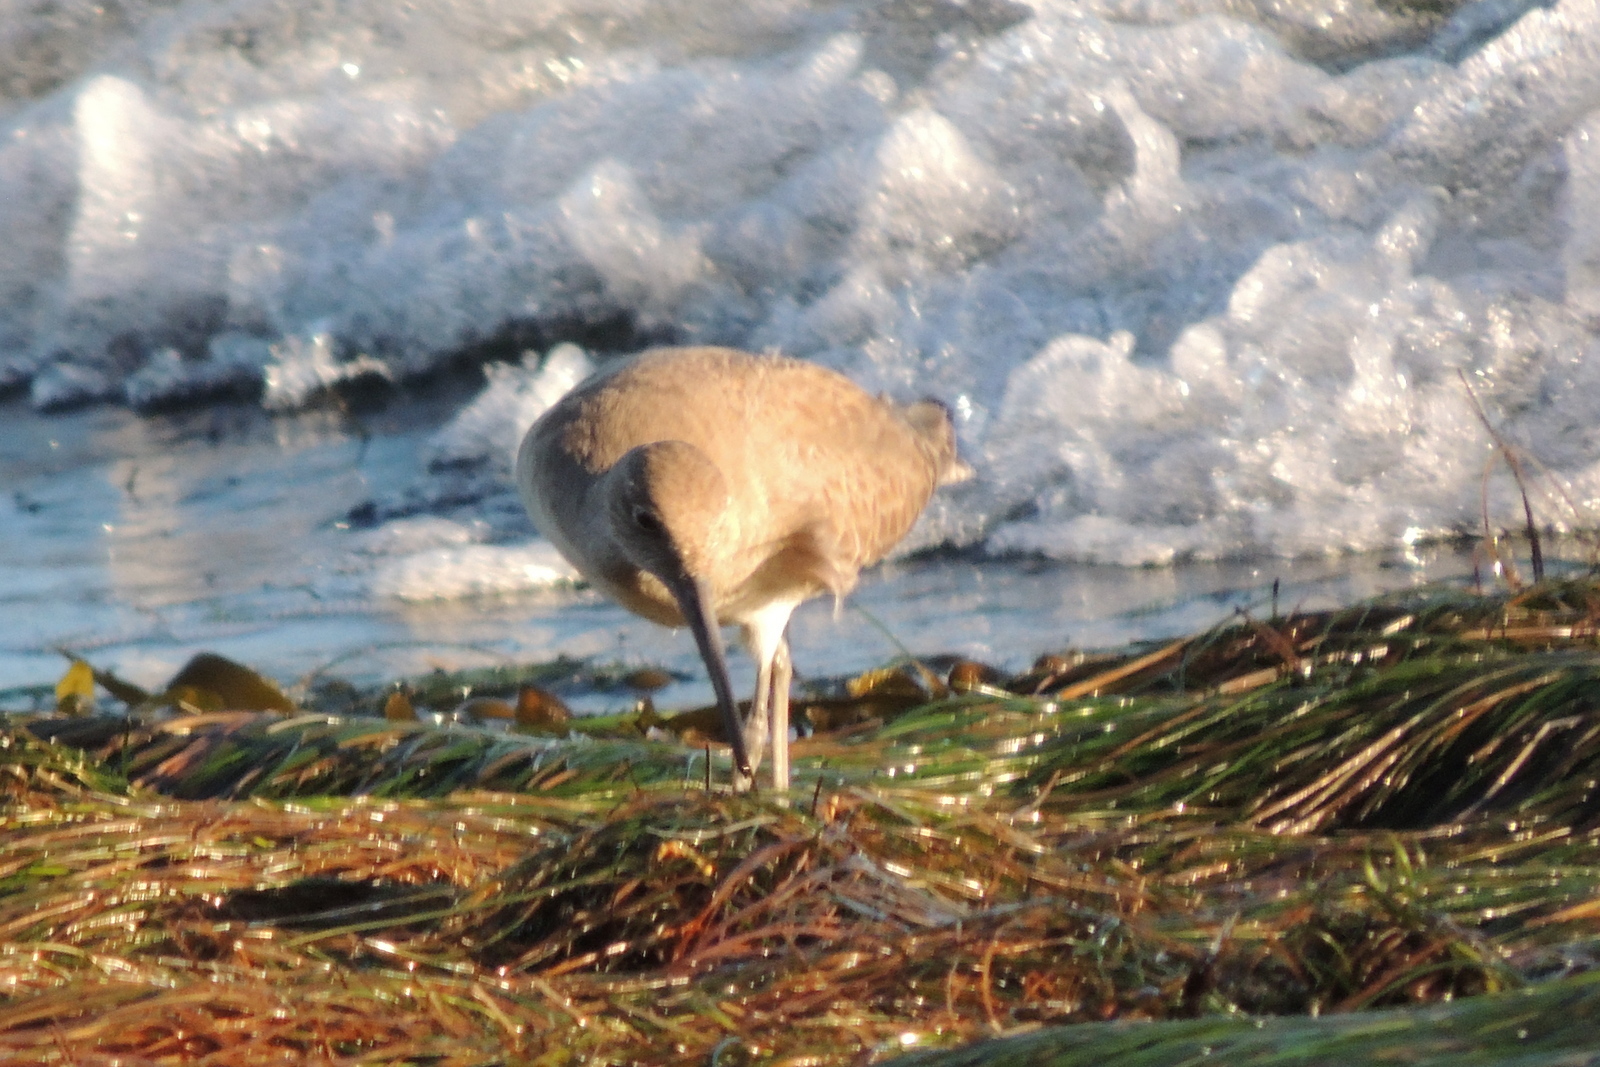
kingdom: Animalia
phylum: Chordata
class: Aves
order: Charadriiformes
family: Scolopacidae
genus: Tringa
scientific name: Tringa semipalmata
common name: Willet
